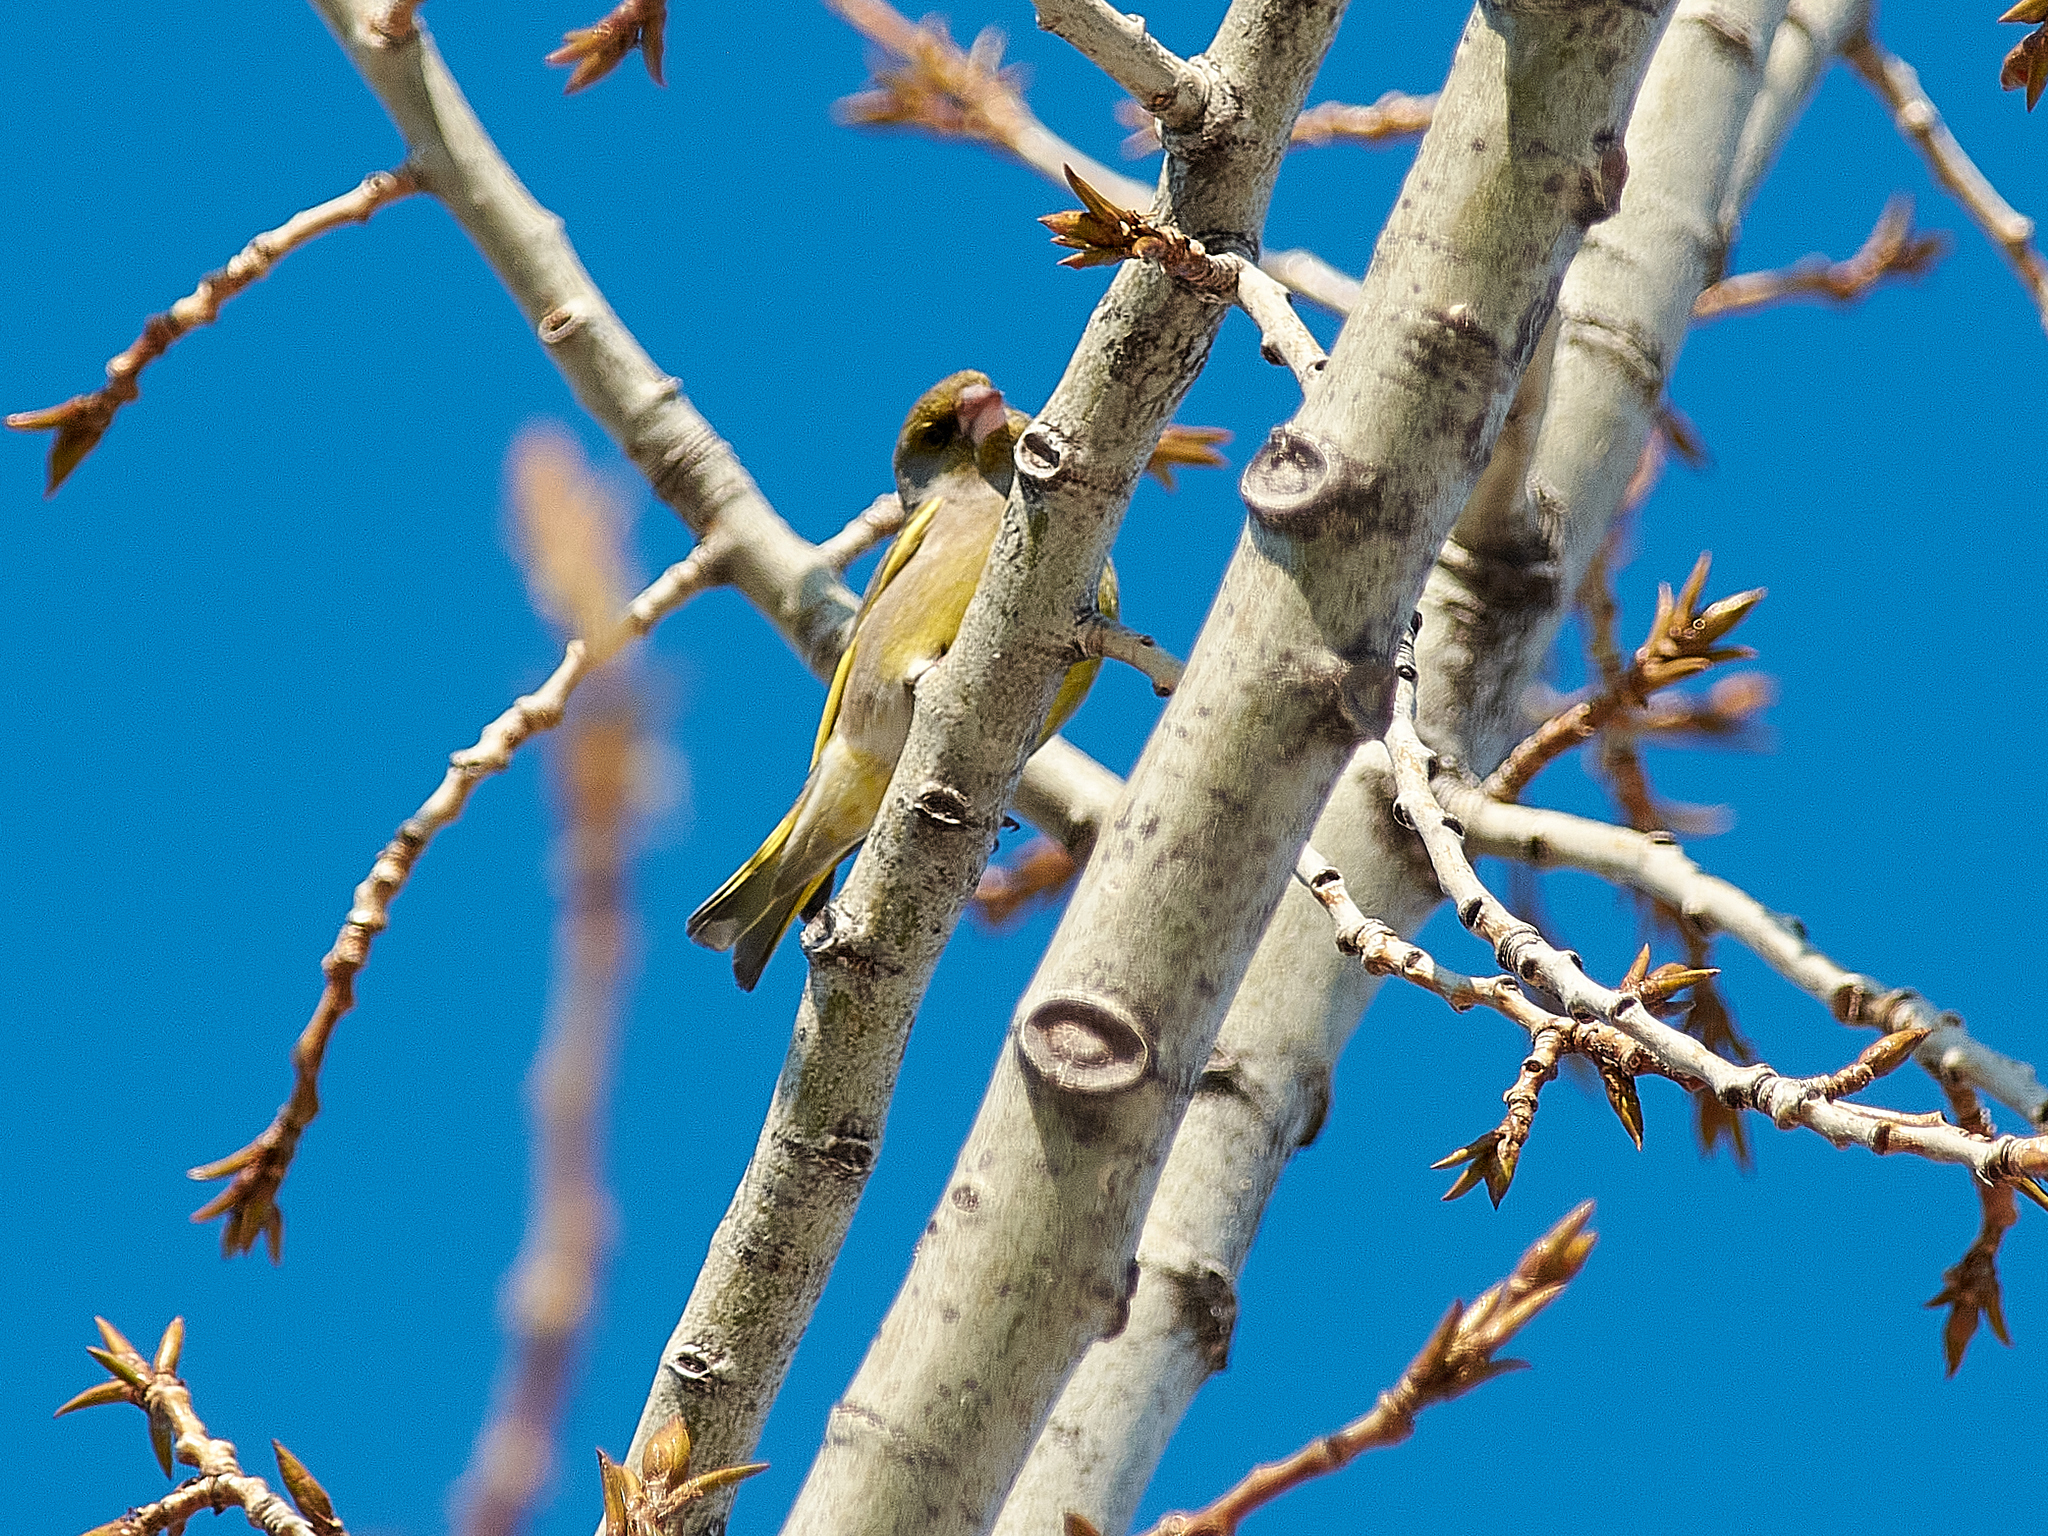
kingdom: Plantae
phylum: Tracheophyta
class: Liliopsida
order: Poales
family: Poaceae
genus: Chloris
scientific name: Chloris chloris
